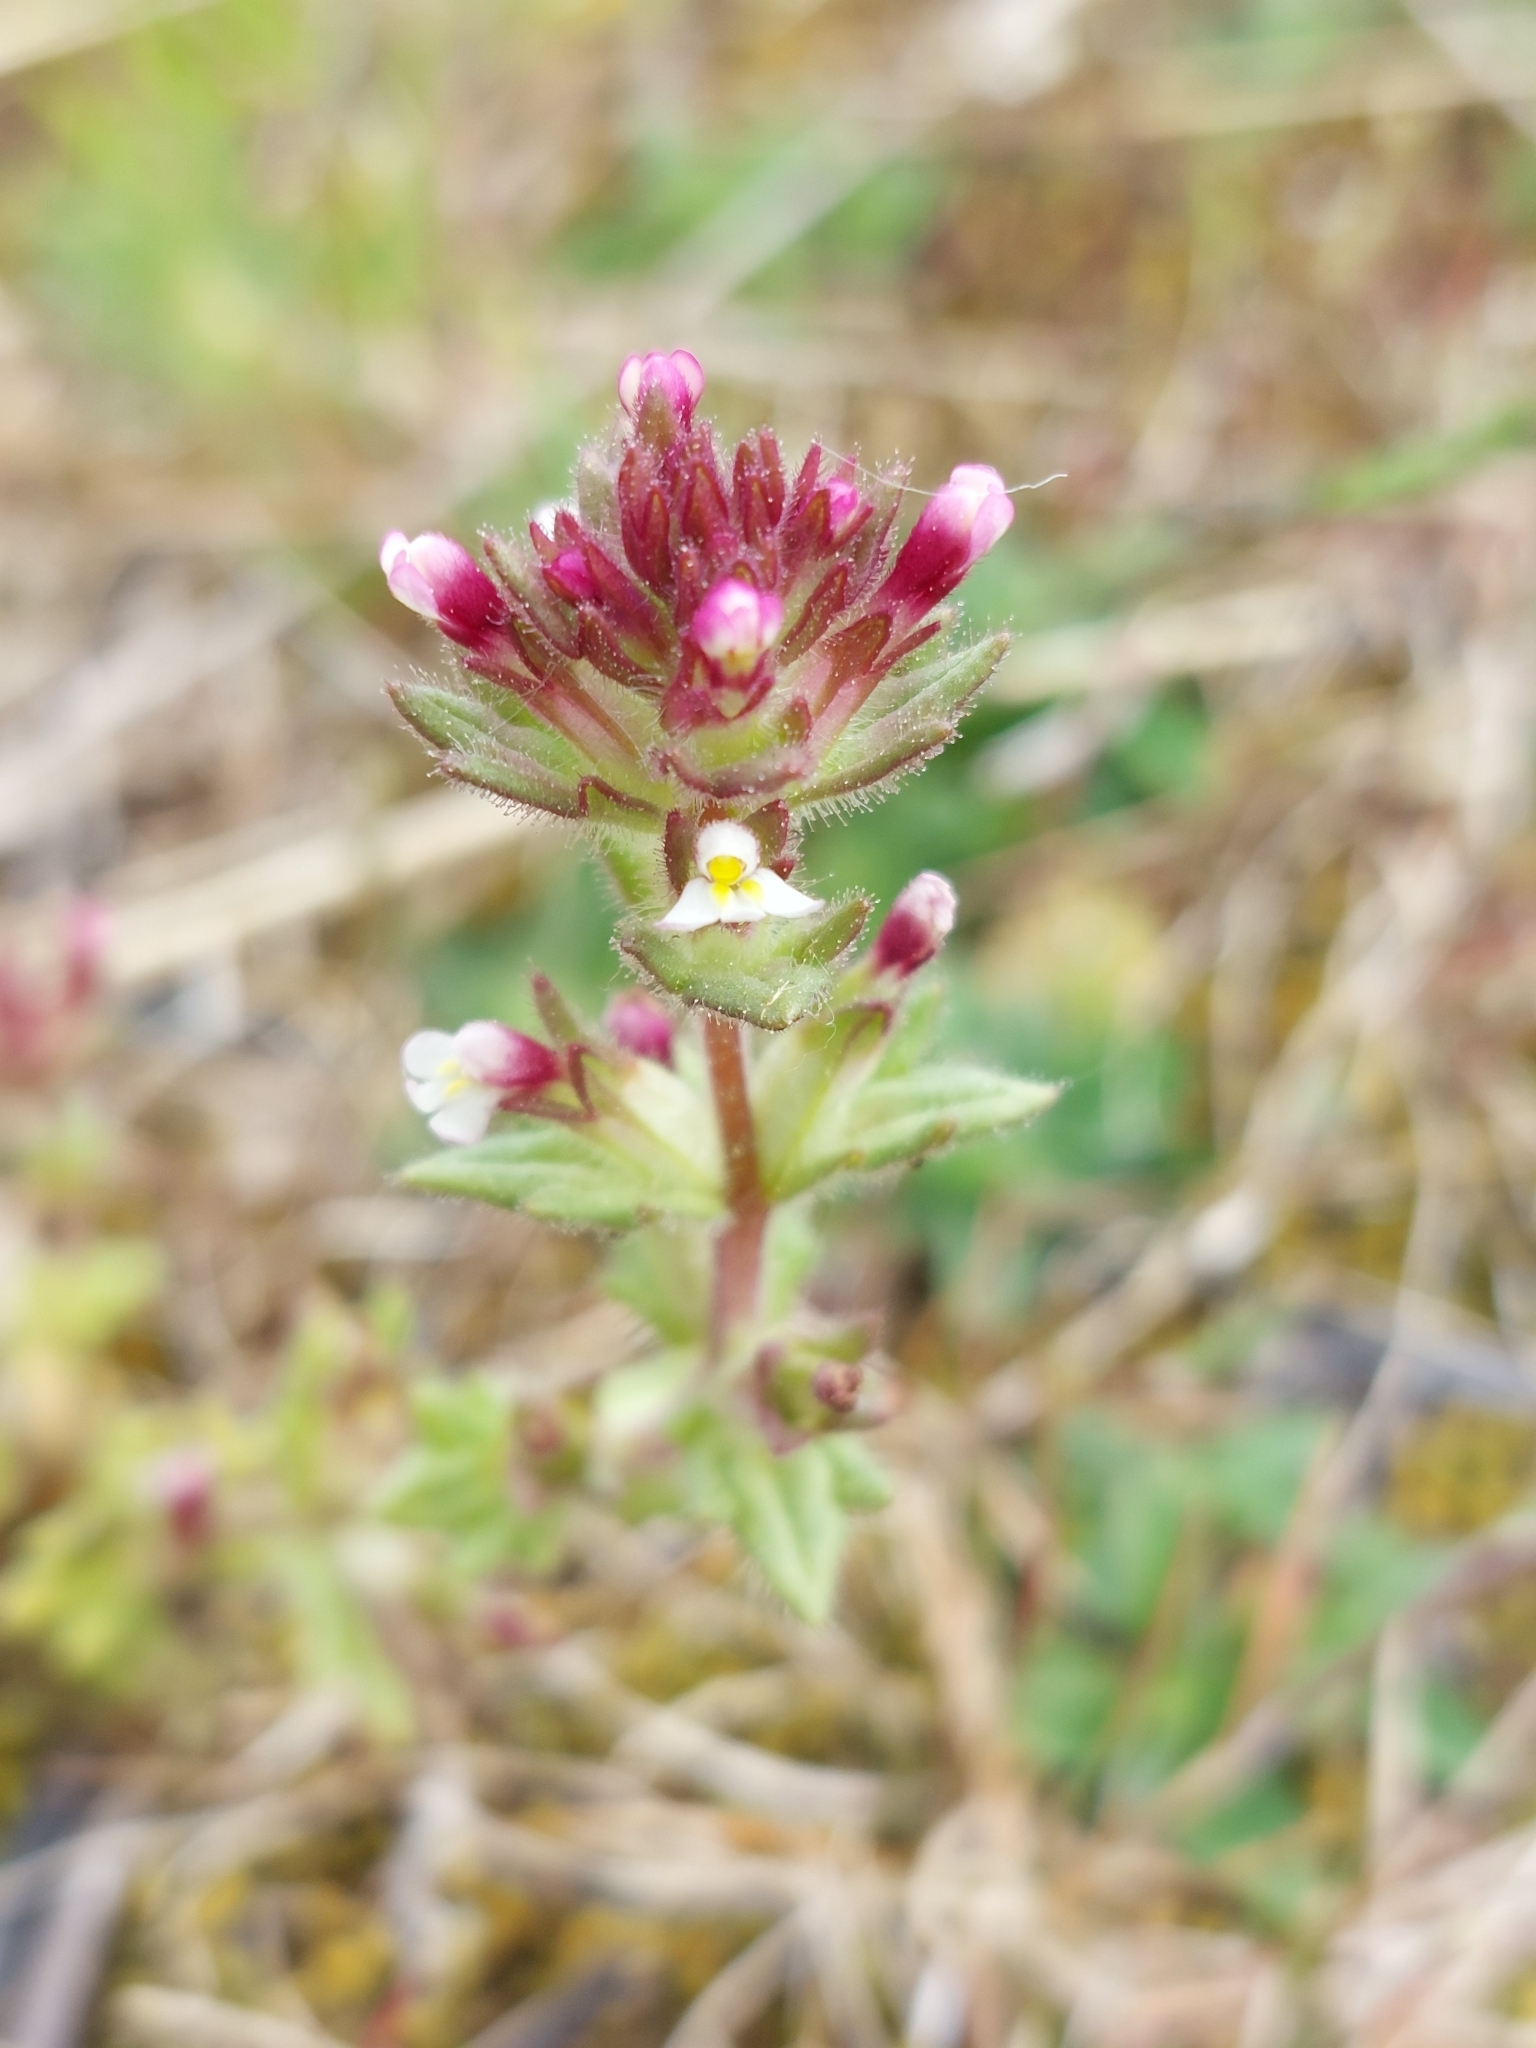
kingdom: Plantae
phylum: Tracheophyta
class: Magnoliopsida
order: Lamiales
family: Orobanchaceae
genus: Parentucellia
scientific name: Parentucellia latifolia
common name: Broadleaf glandweed
